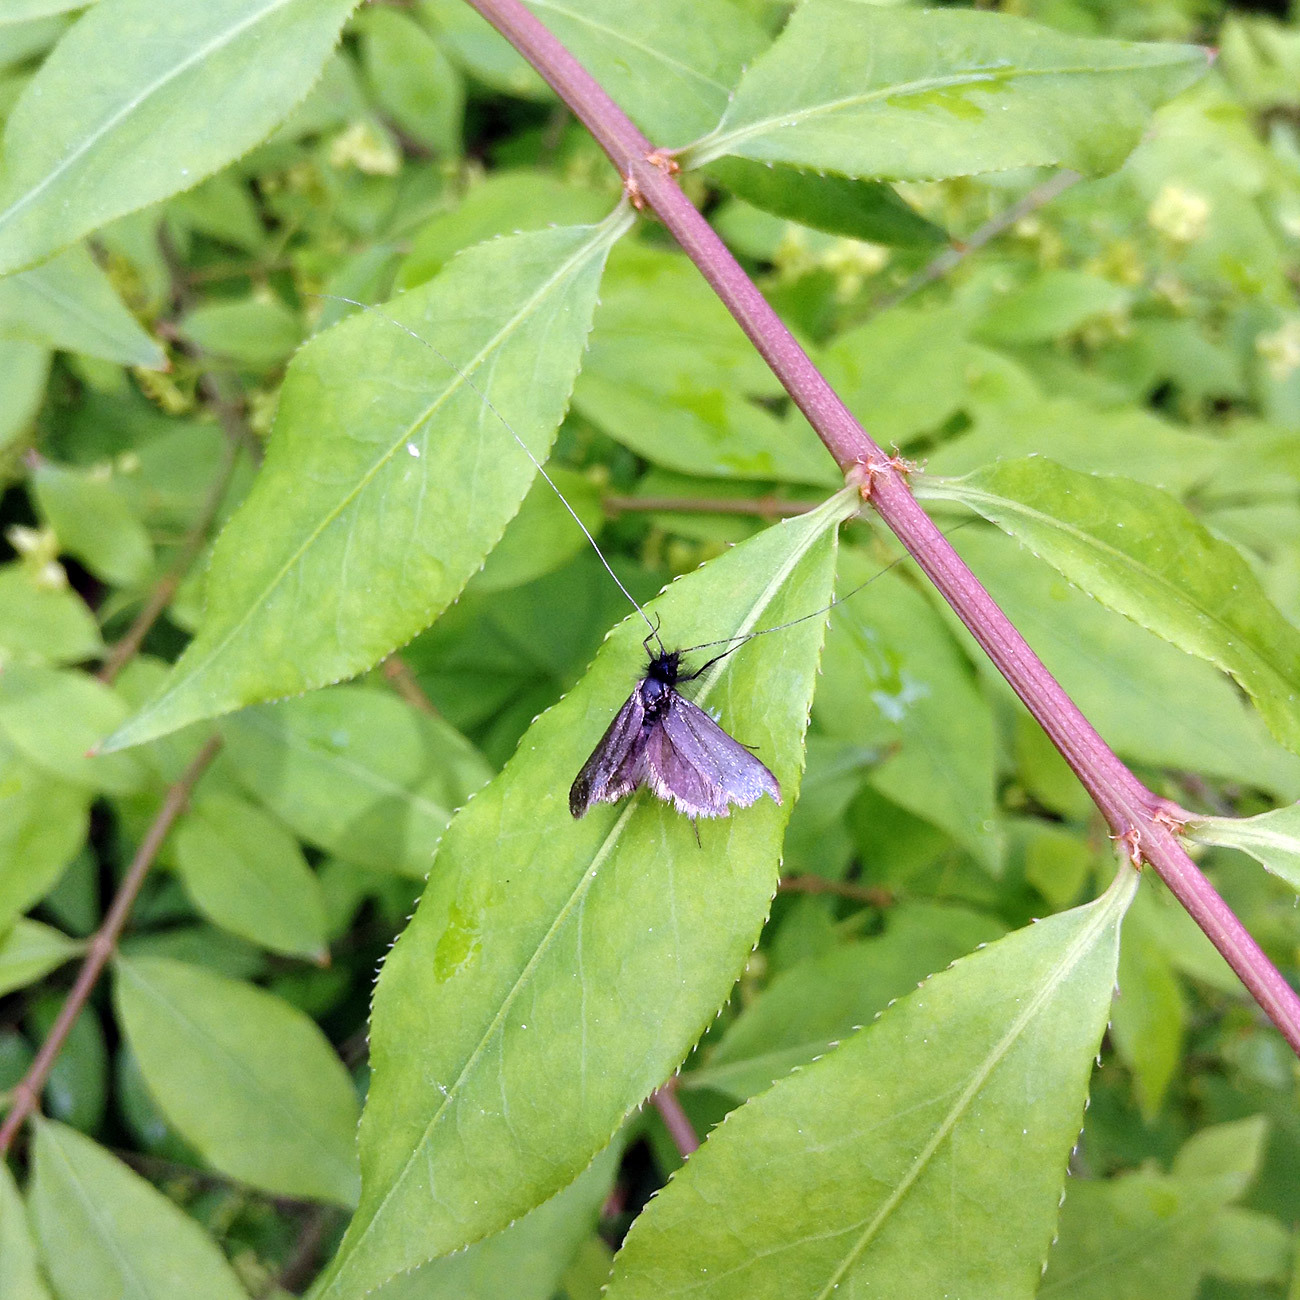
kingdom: Animalia
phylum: Arthropoda
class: Insecta
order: Lepidoptera
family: Adelidae
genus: Adela
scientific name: Adela viridella
